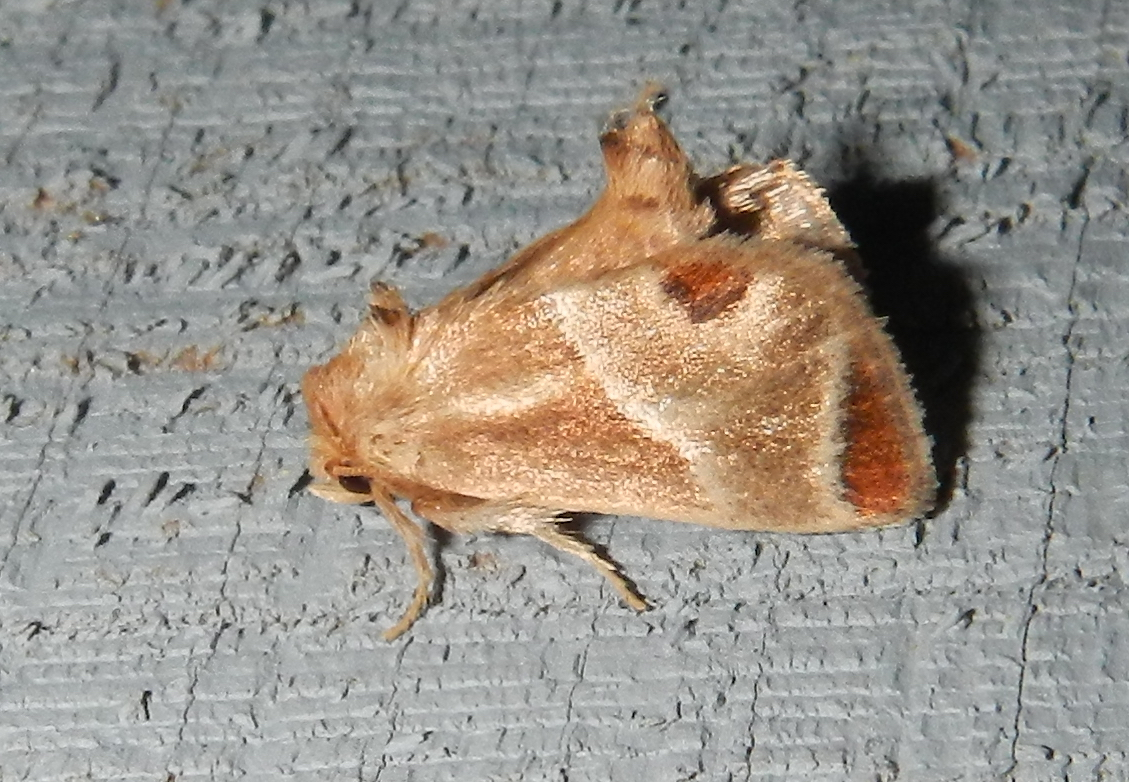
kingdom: Animalia
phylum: Arthropoda
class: Insecta
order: Lepidoptera
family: Limacodidae
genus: Apoda
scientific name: Apoda biguttata
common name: Shagreened slug moth
